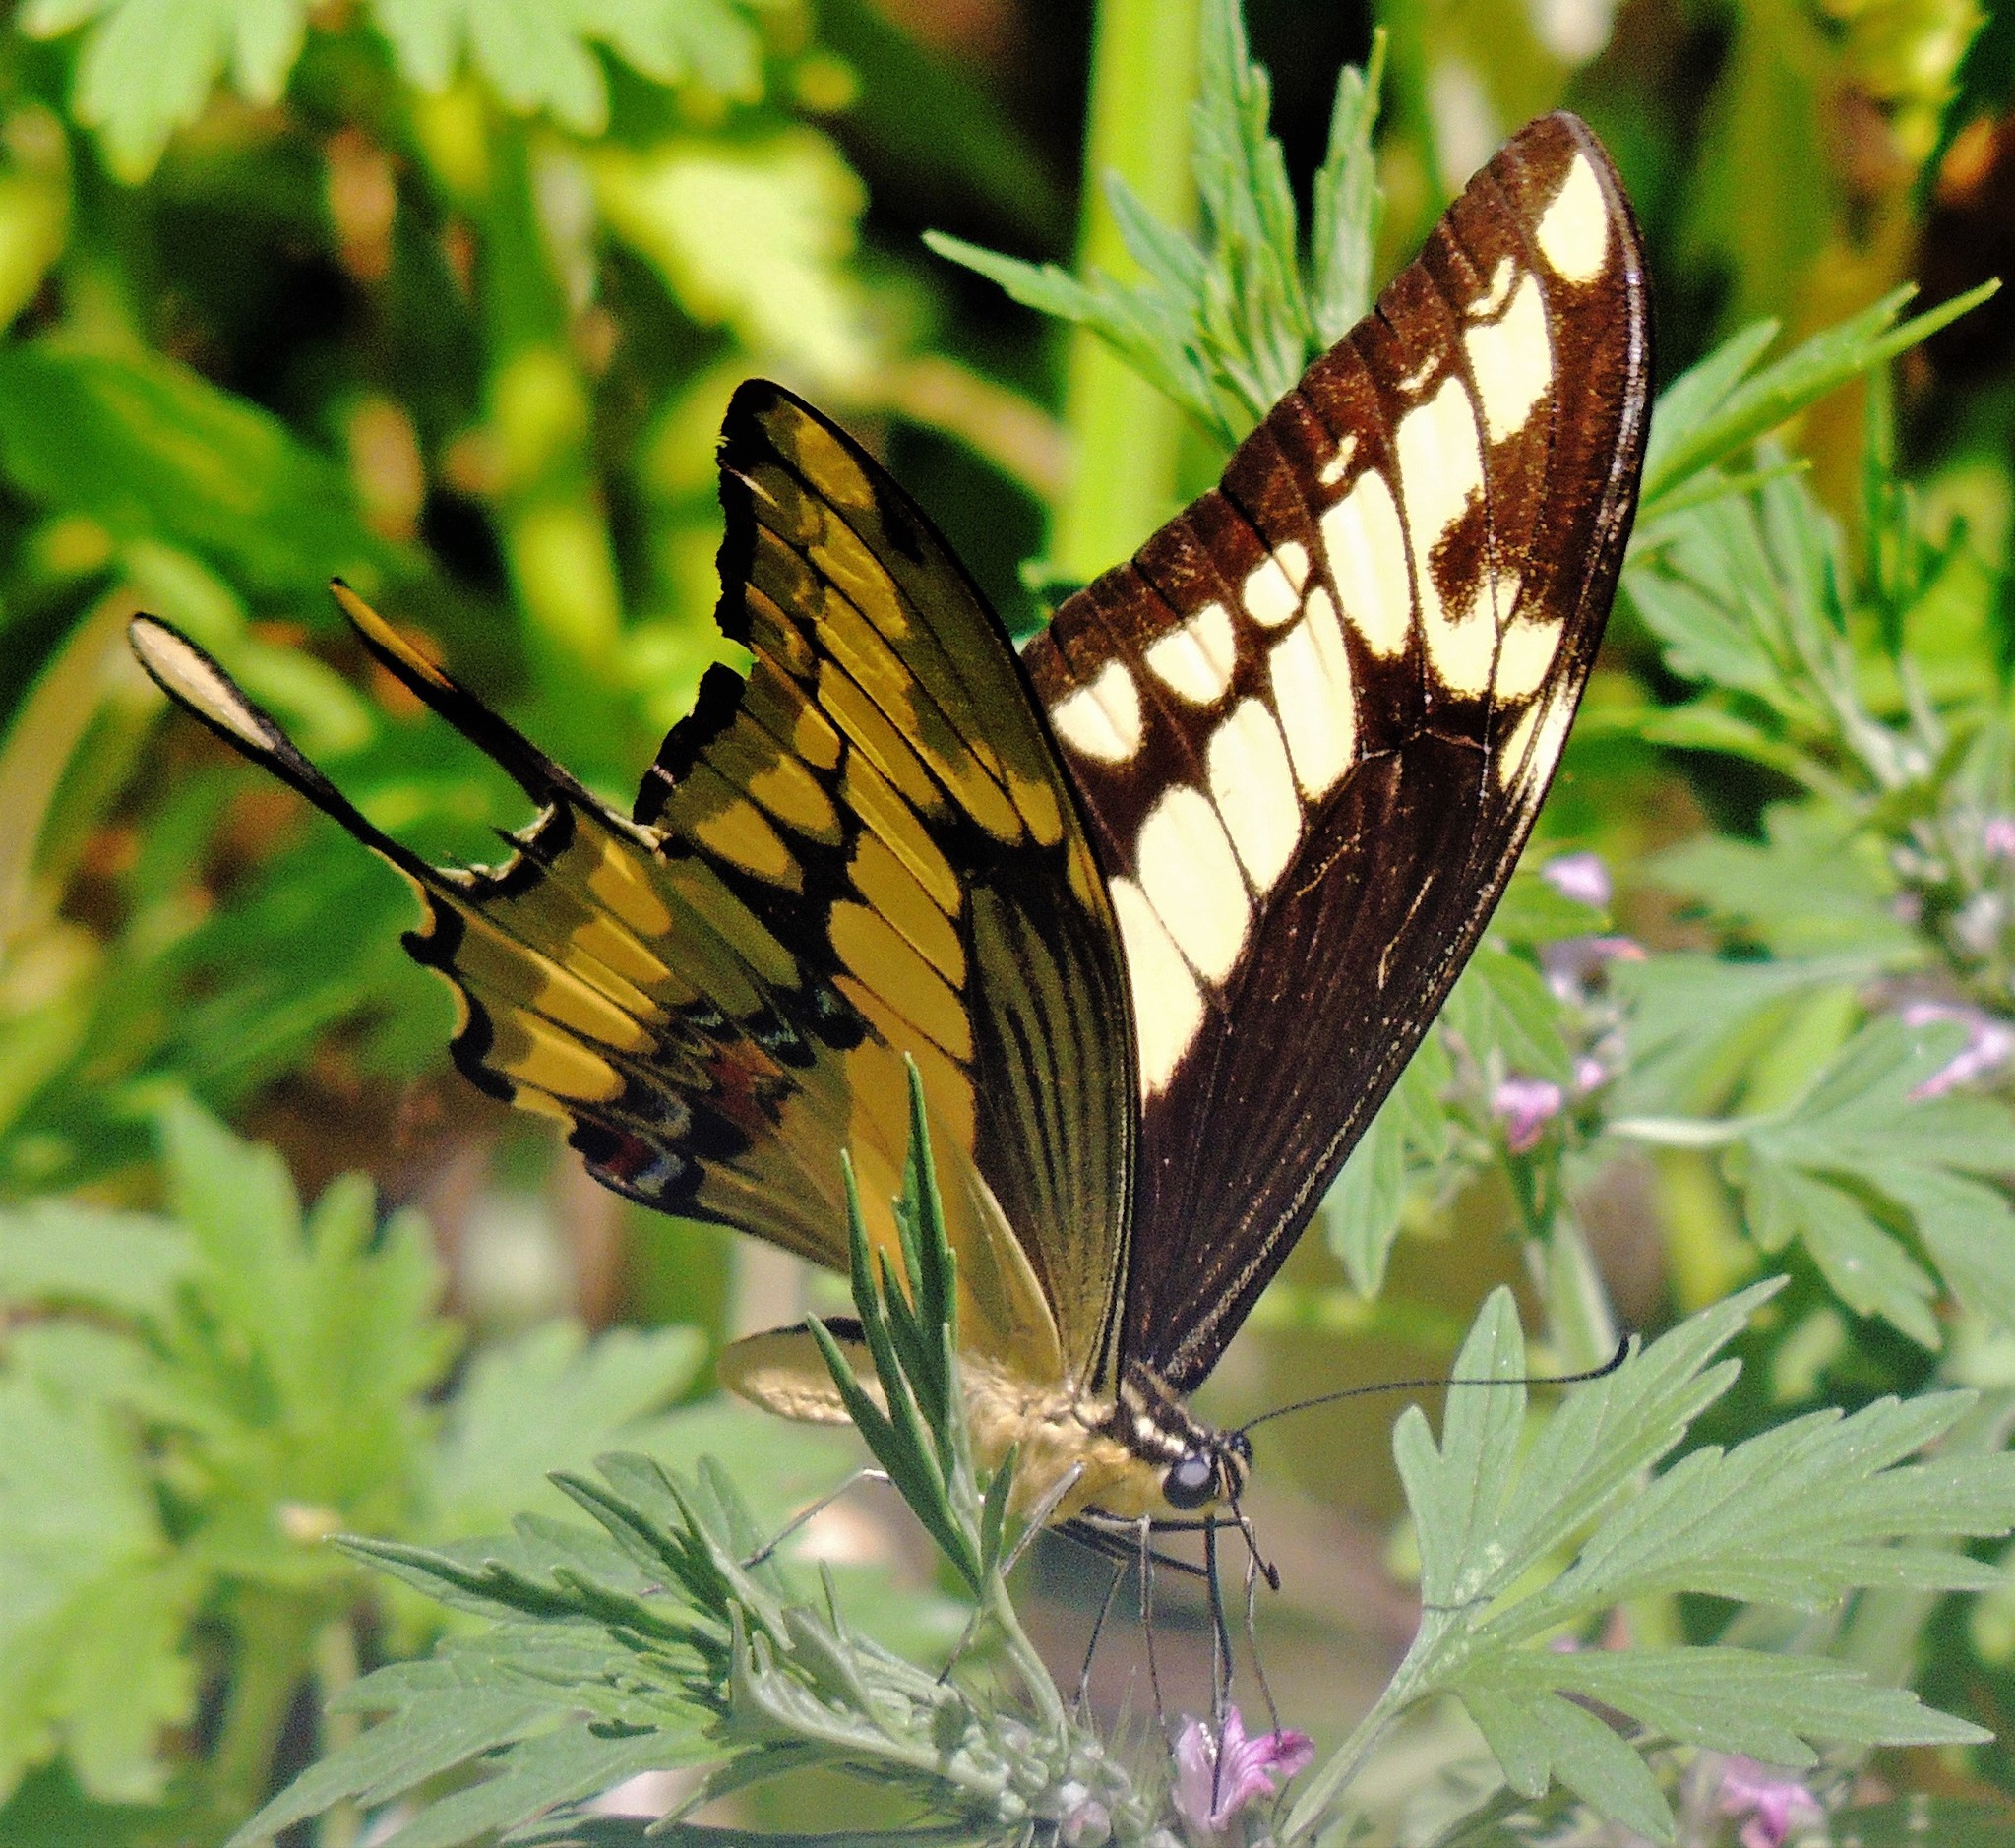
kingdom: Animalia
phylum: Arthropoda
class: Insecta
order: Lepidoptera
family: Papilionidae
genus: Papilio
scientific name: Papilio thoas
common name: King swallowtail
